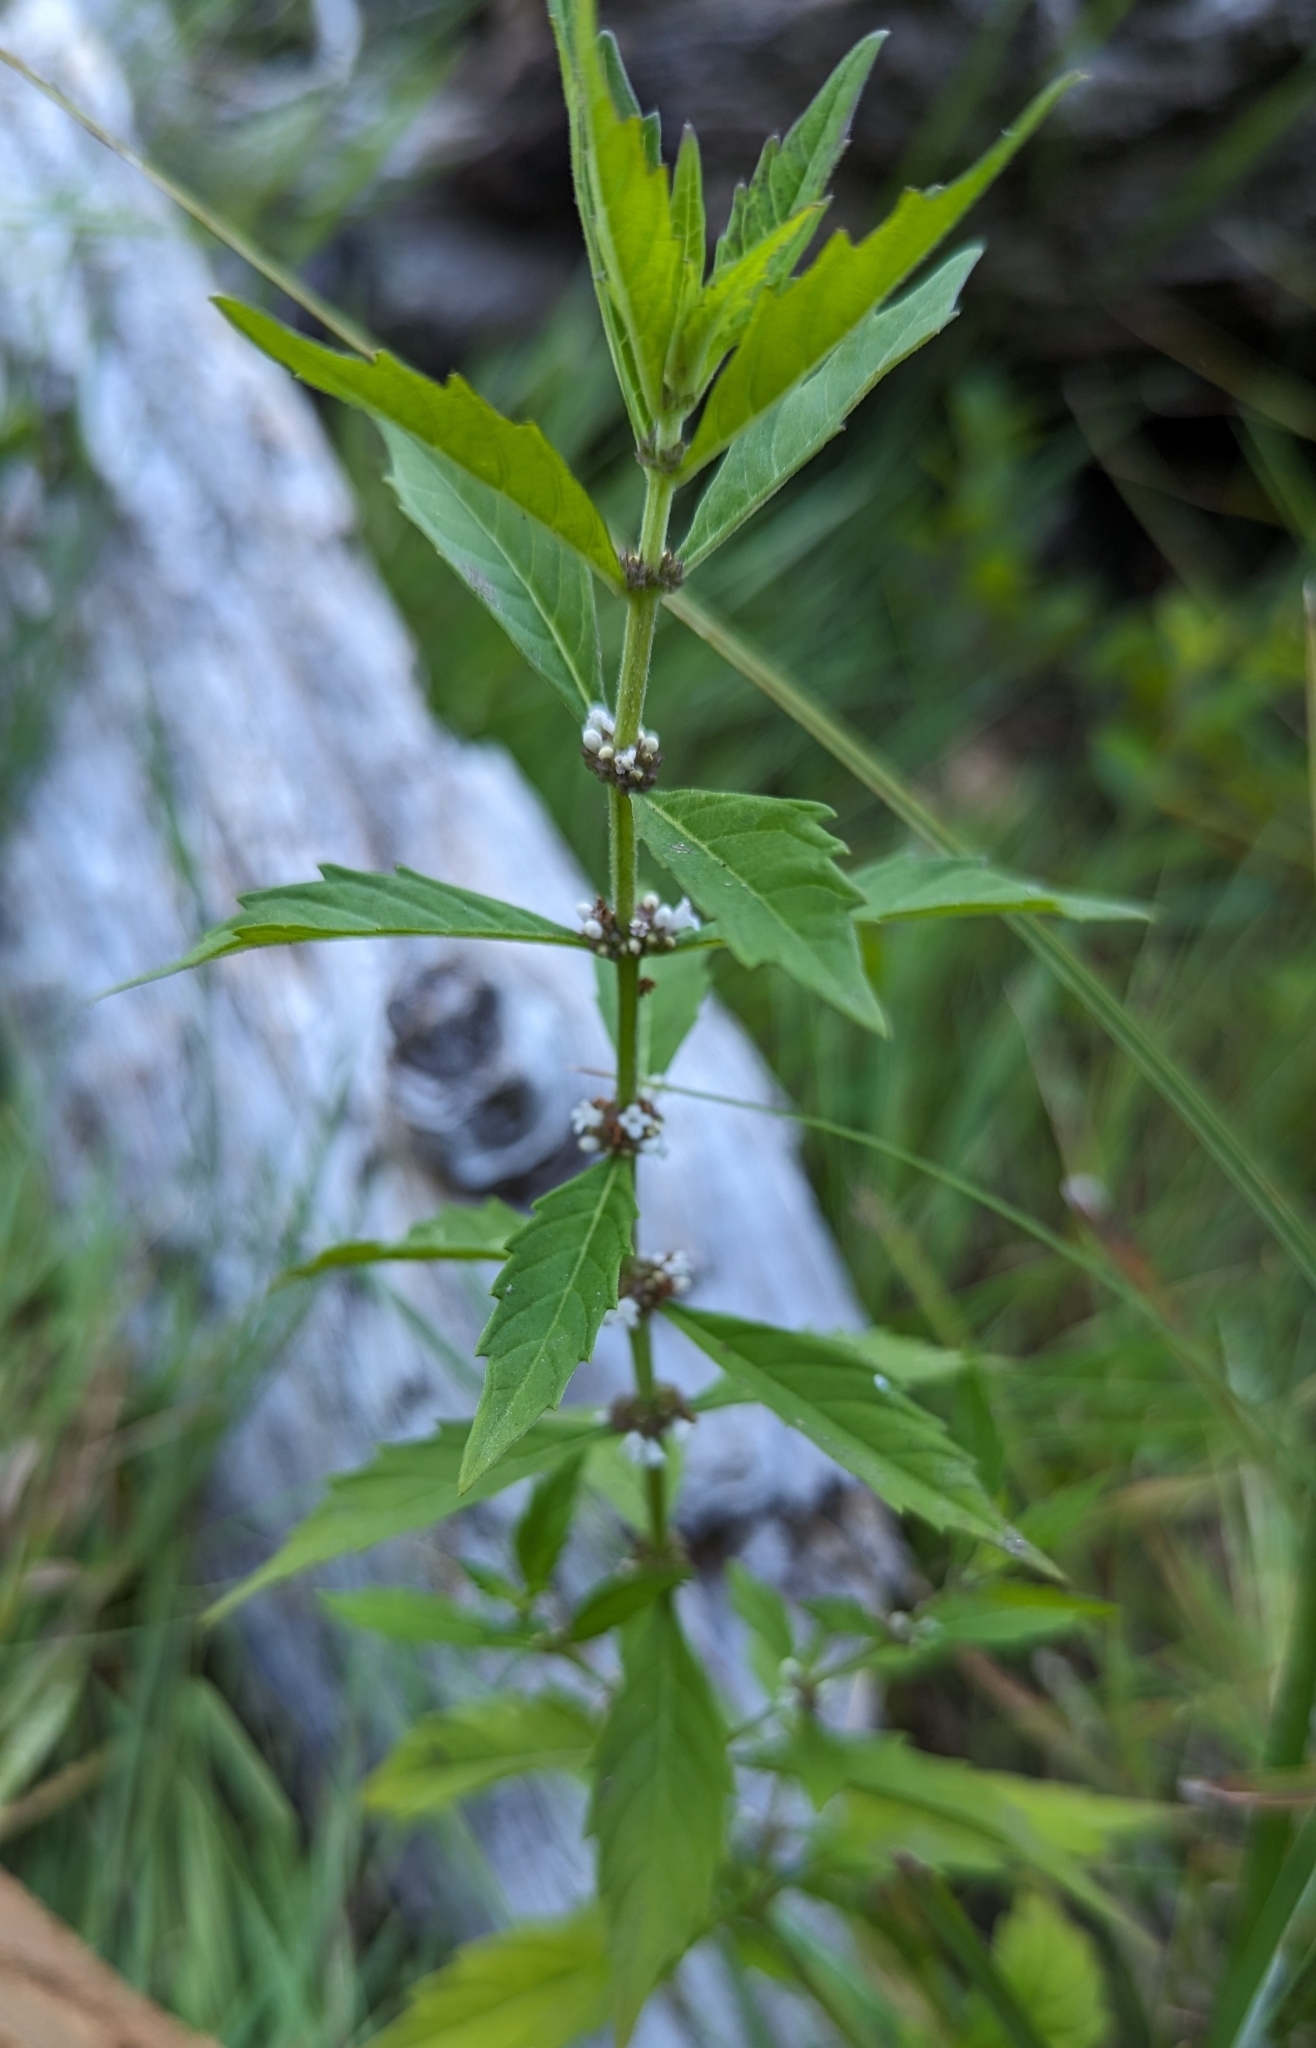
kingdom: Plantae
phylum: Tracheophyta
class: Magnoliopsida
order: Lamiales
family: Lamiaceae
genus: Lycopus
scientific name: Lycopus uniflorus
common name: Northern bugleweed
